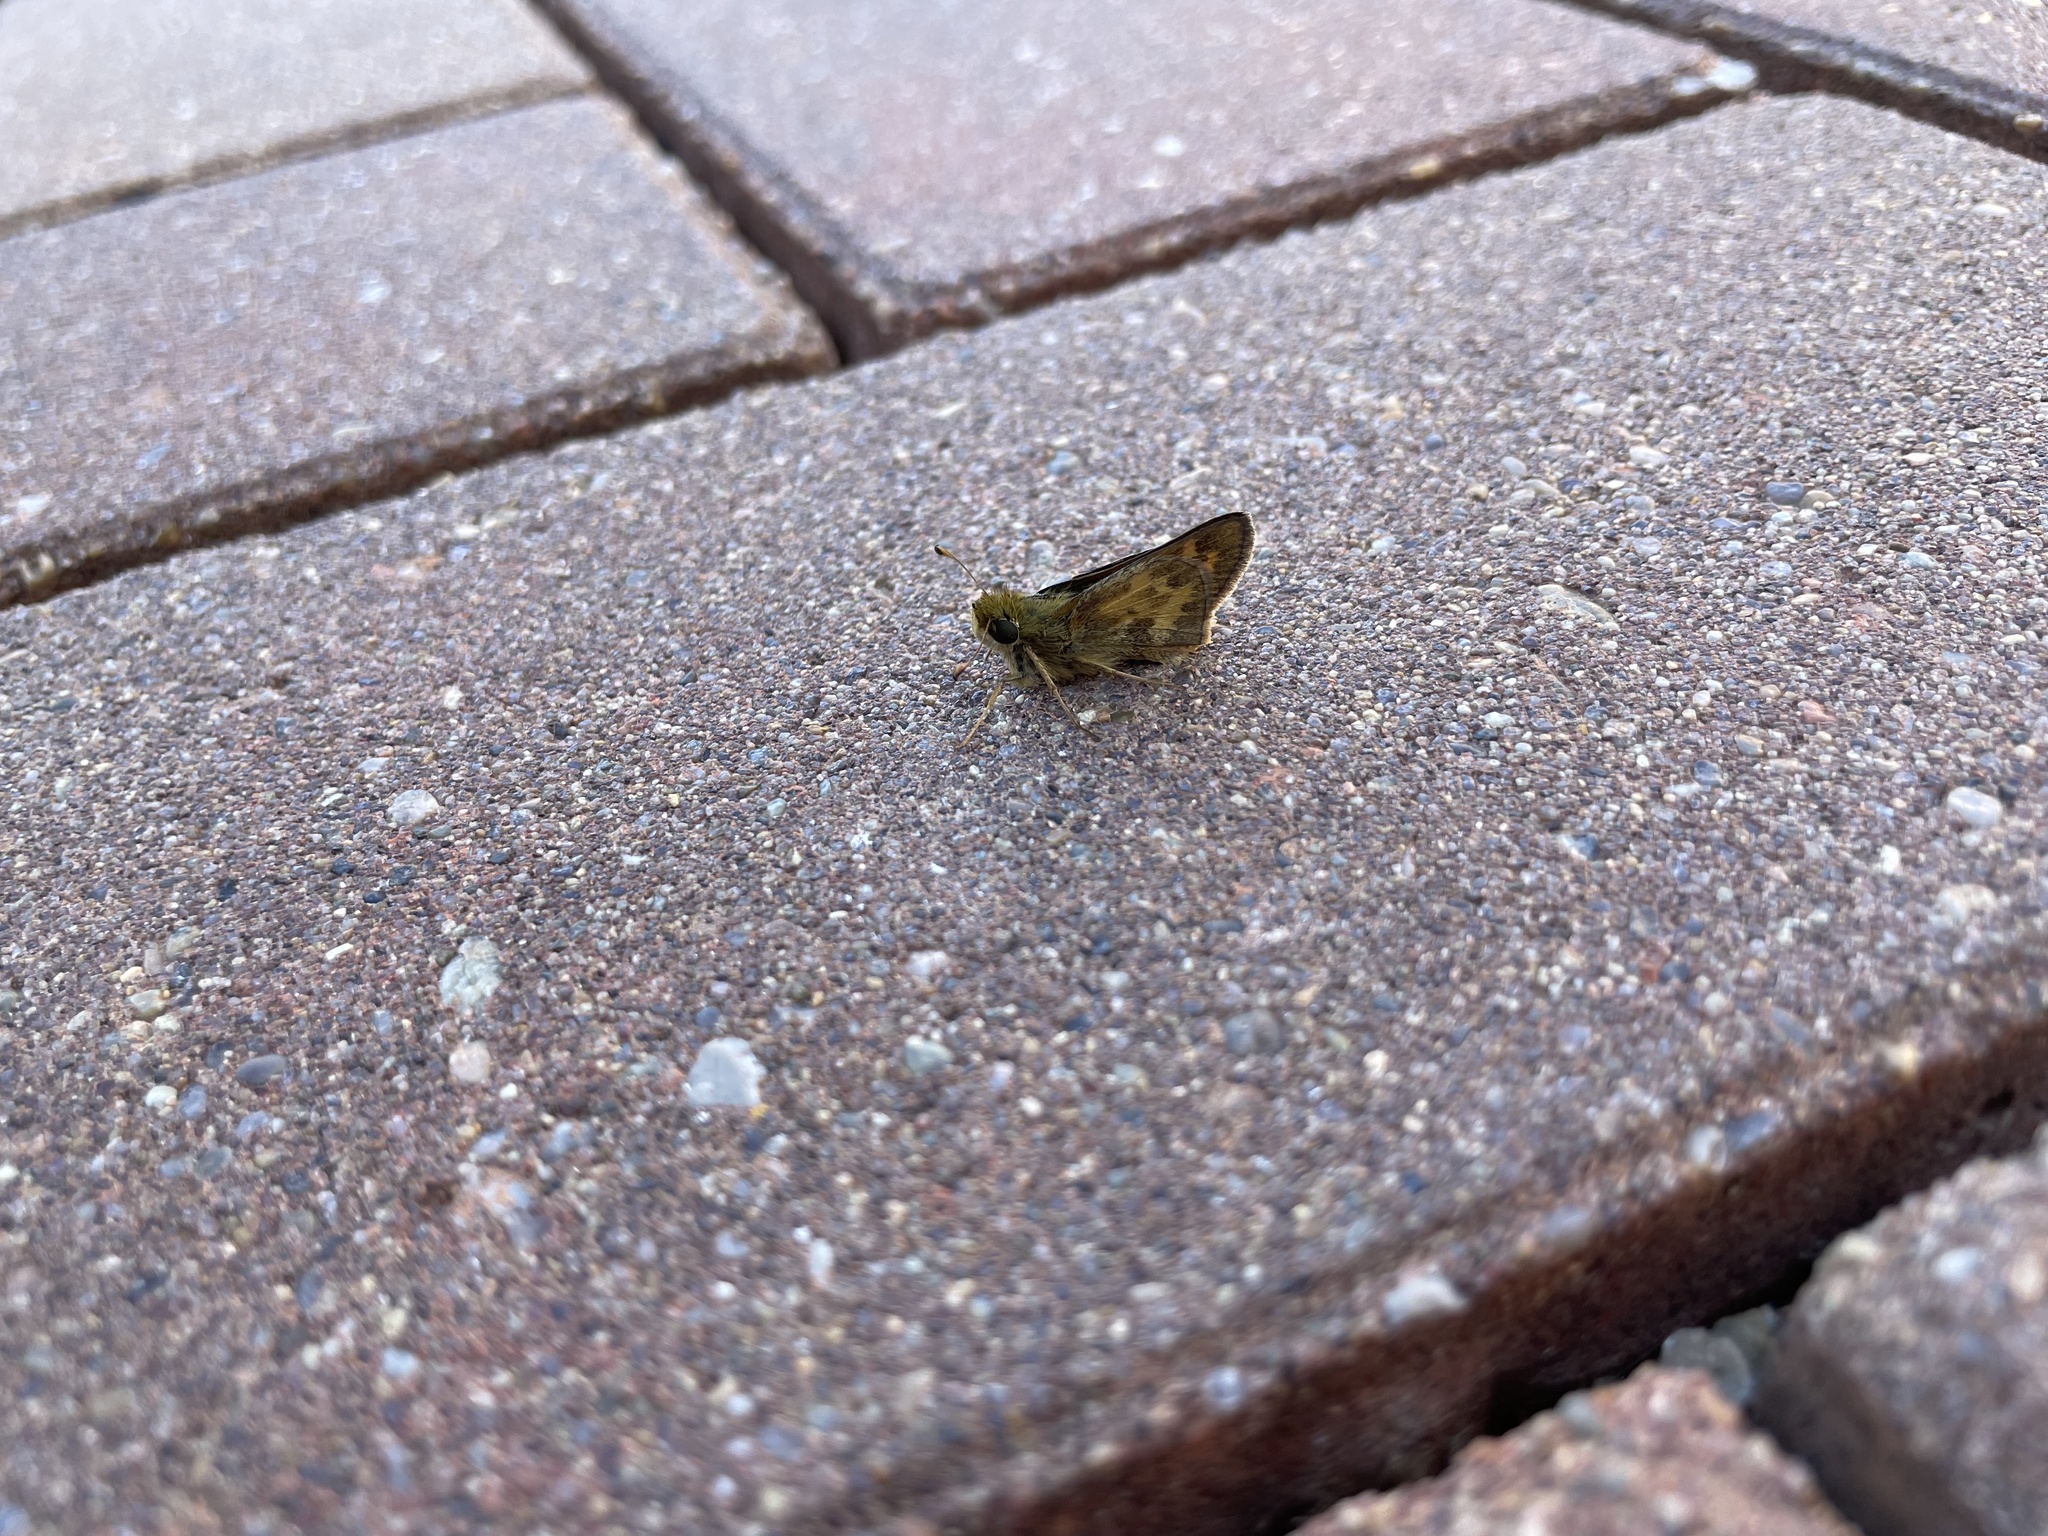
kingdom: Animalia
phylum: Arthropoda
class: Insecta
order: Lepidoptera
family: Hesperiidae
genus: Atalopedes
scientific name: Atalopedes
